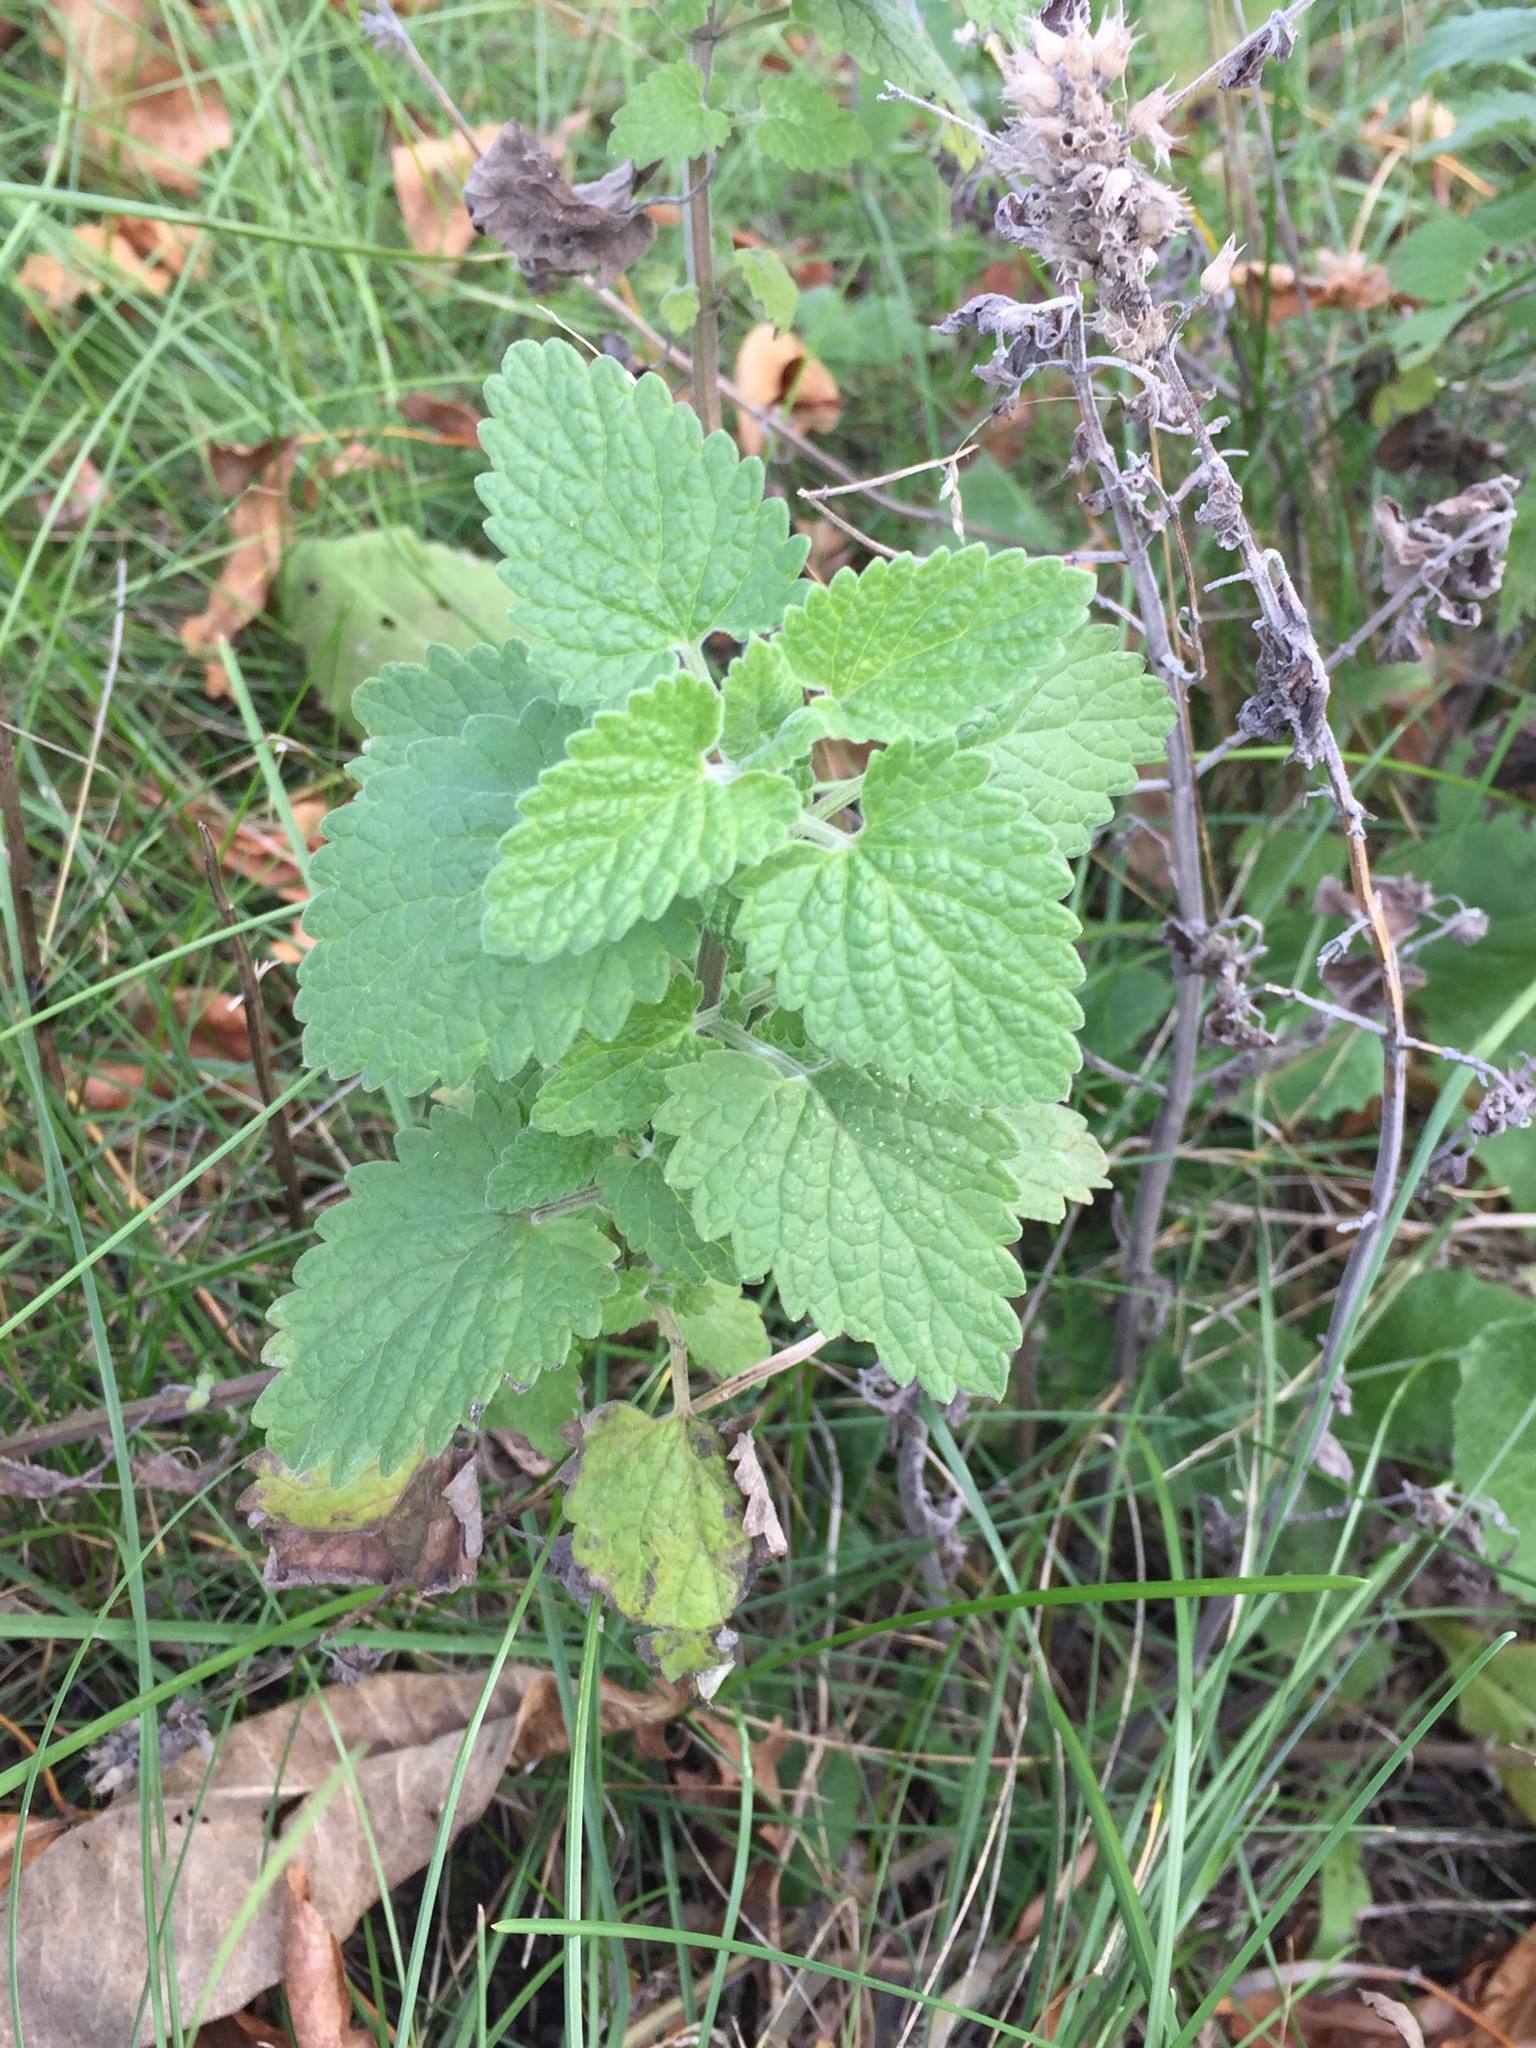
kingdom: Plantae
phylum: Tracheophyta
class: Magnoliopsida
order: Lamiales
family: Lamiaceae
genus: Nepeta
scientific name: Nepeta cataria
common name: Catnip
